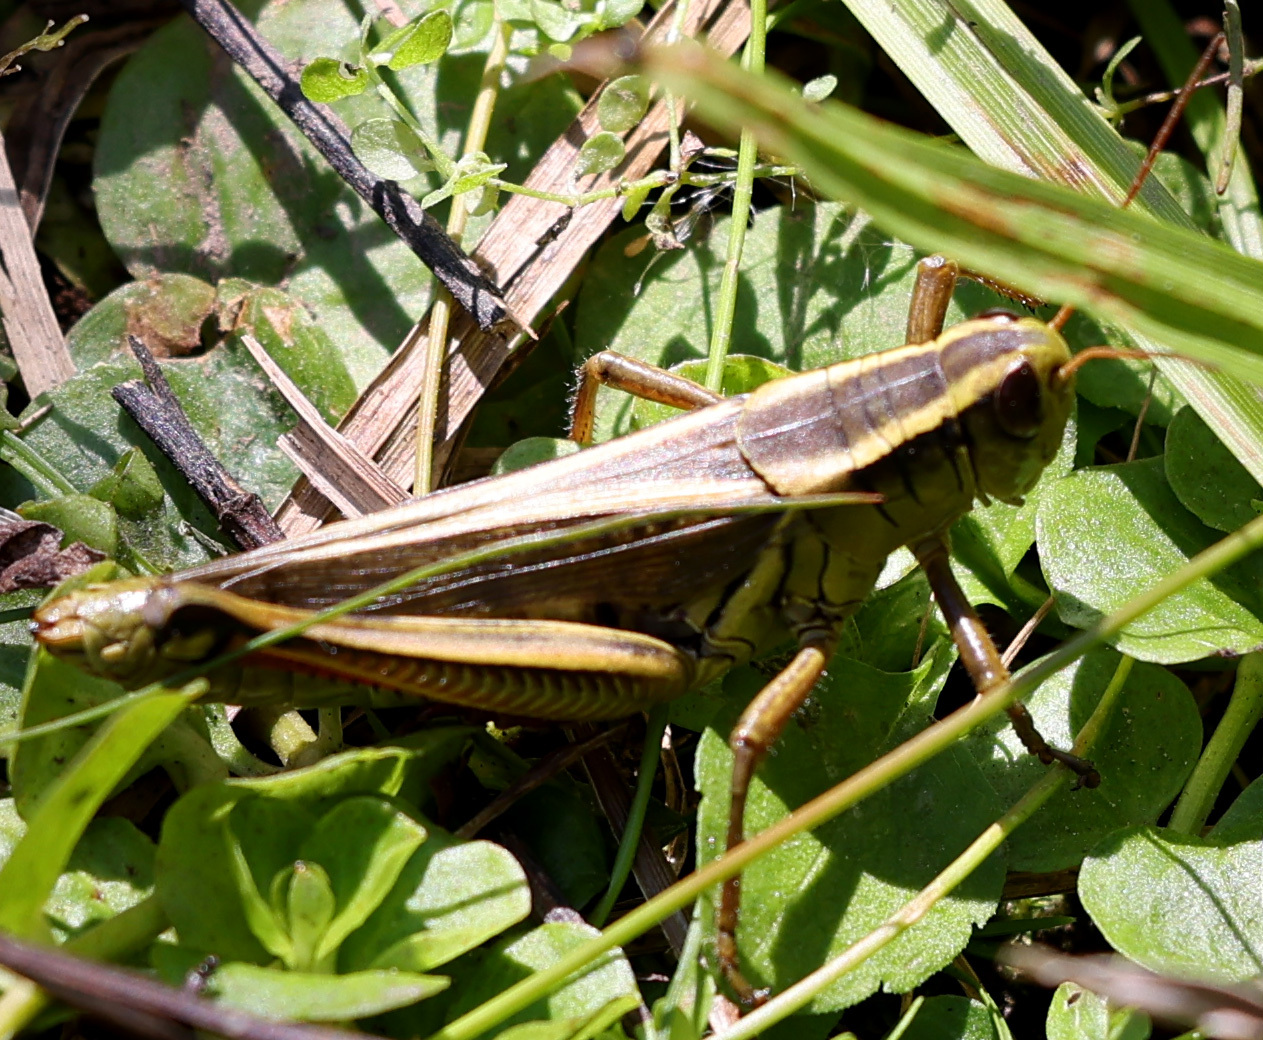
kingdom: Animalia
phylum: Arthropoda
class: Insecta
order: Orthoptera
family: Acrididae
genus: Melanoplus
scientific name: Melanoplus bivittatus
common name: Two-striped grasshopper
